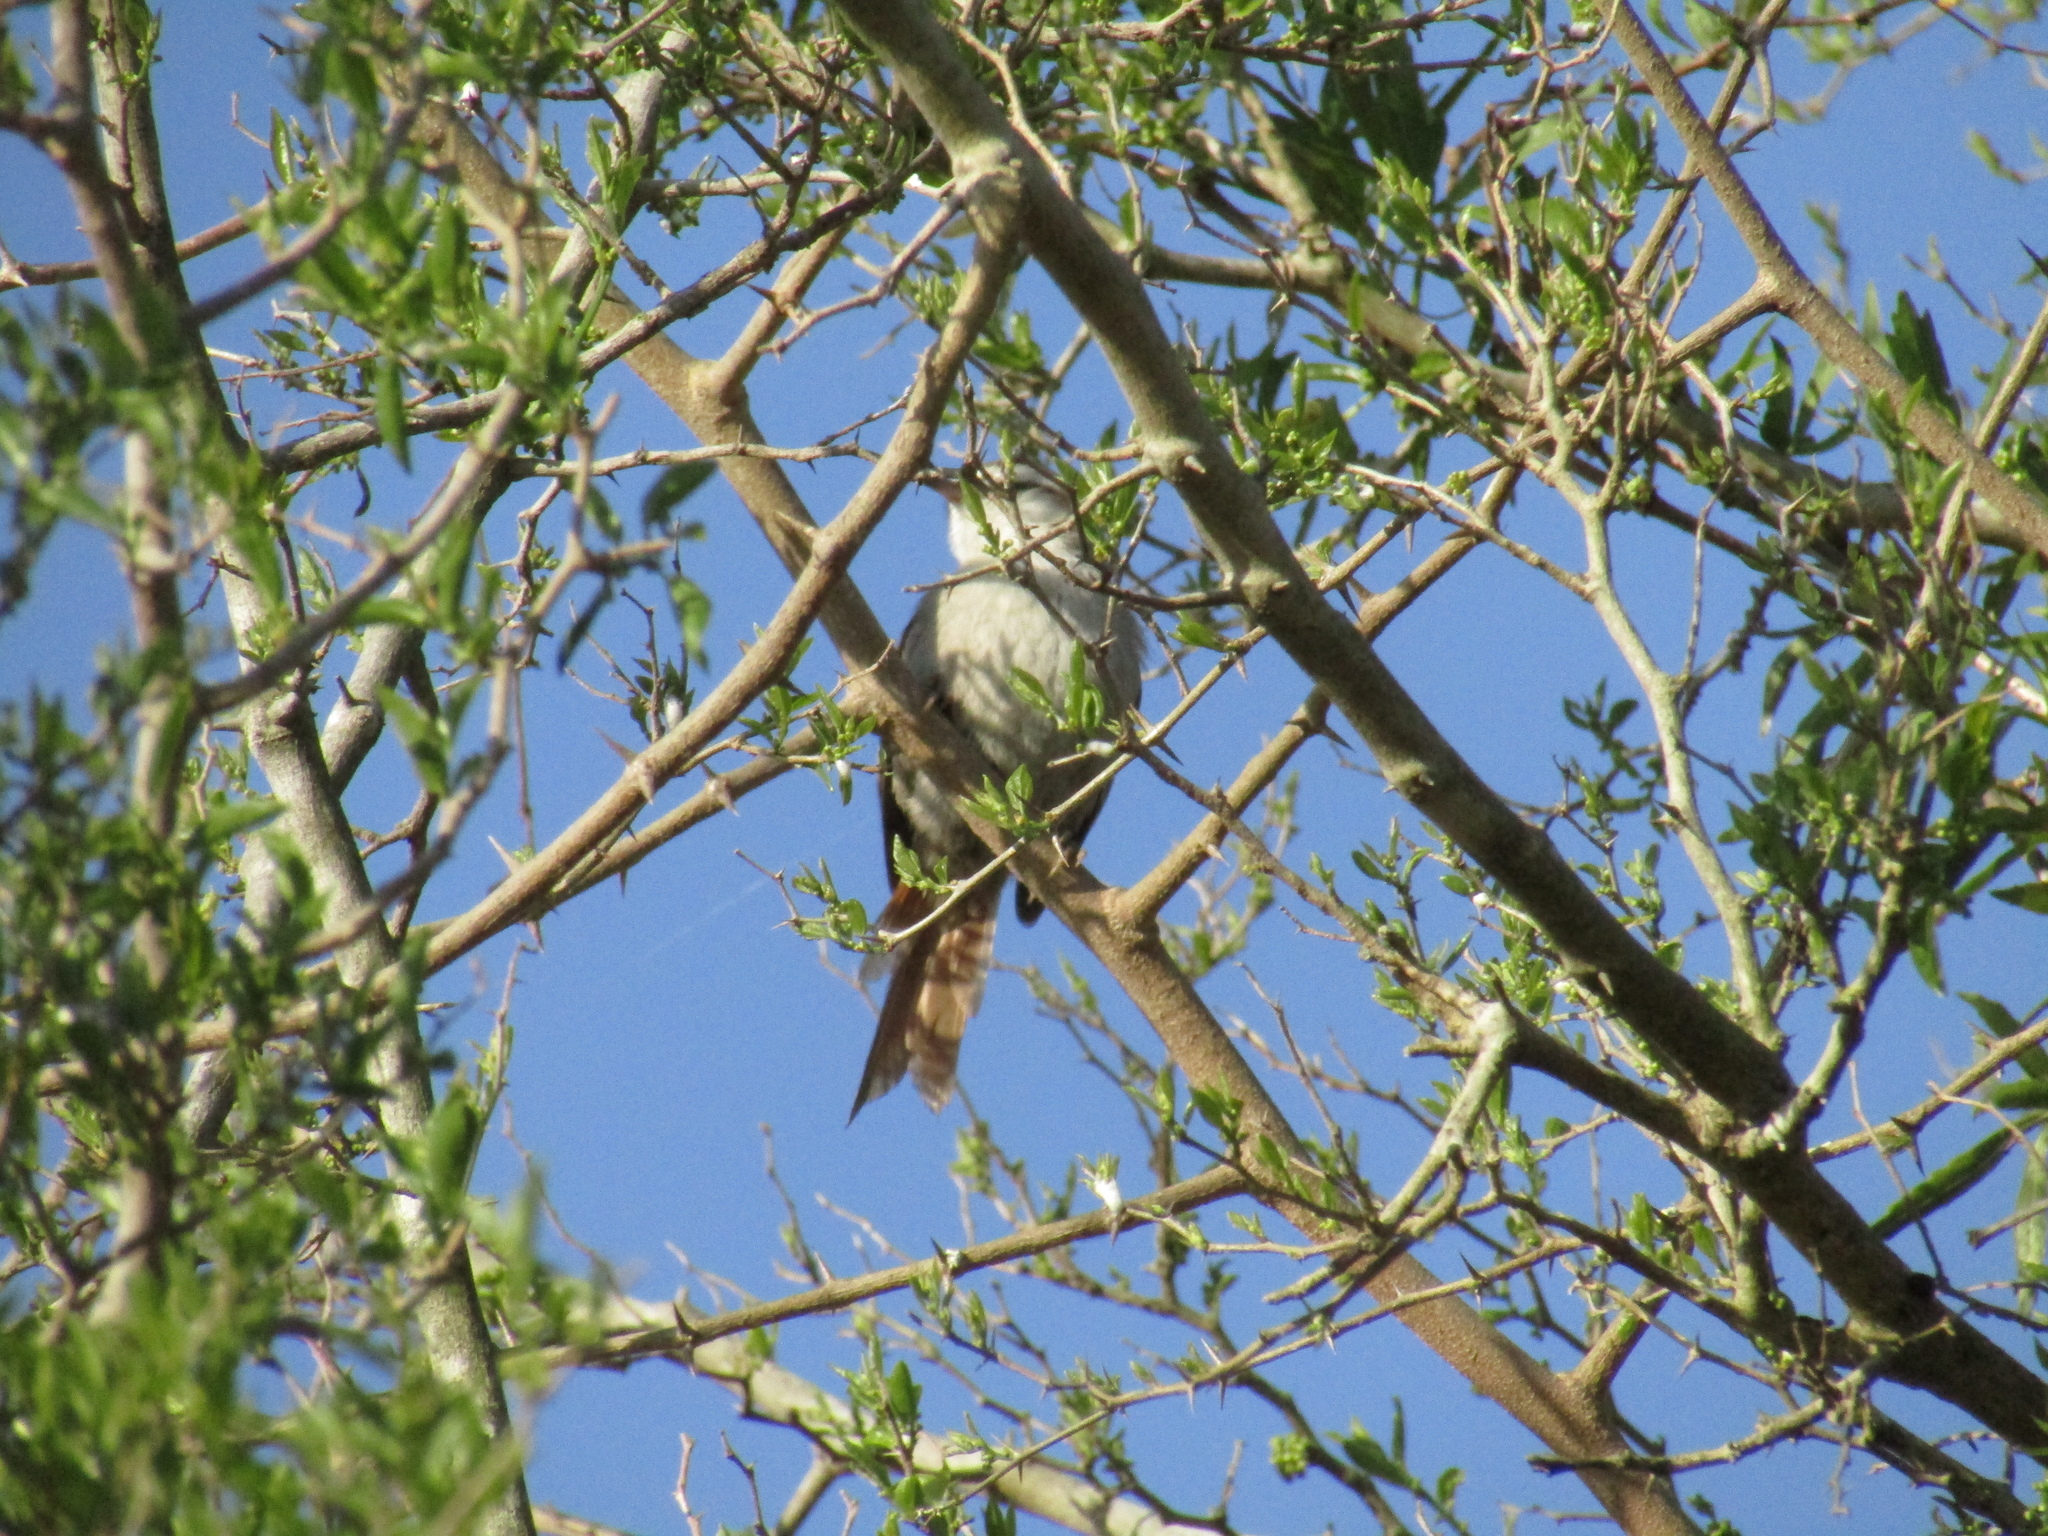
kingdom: Animalia
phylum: Chordata
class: Aves
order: Passeriformes
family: Furnariidae
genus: Cranioleuca
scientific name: Cranioleuca pyrrhophia
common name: Stripe-crowned spinetail
